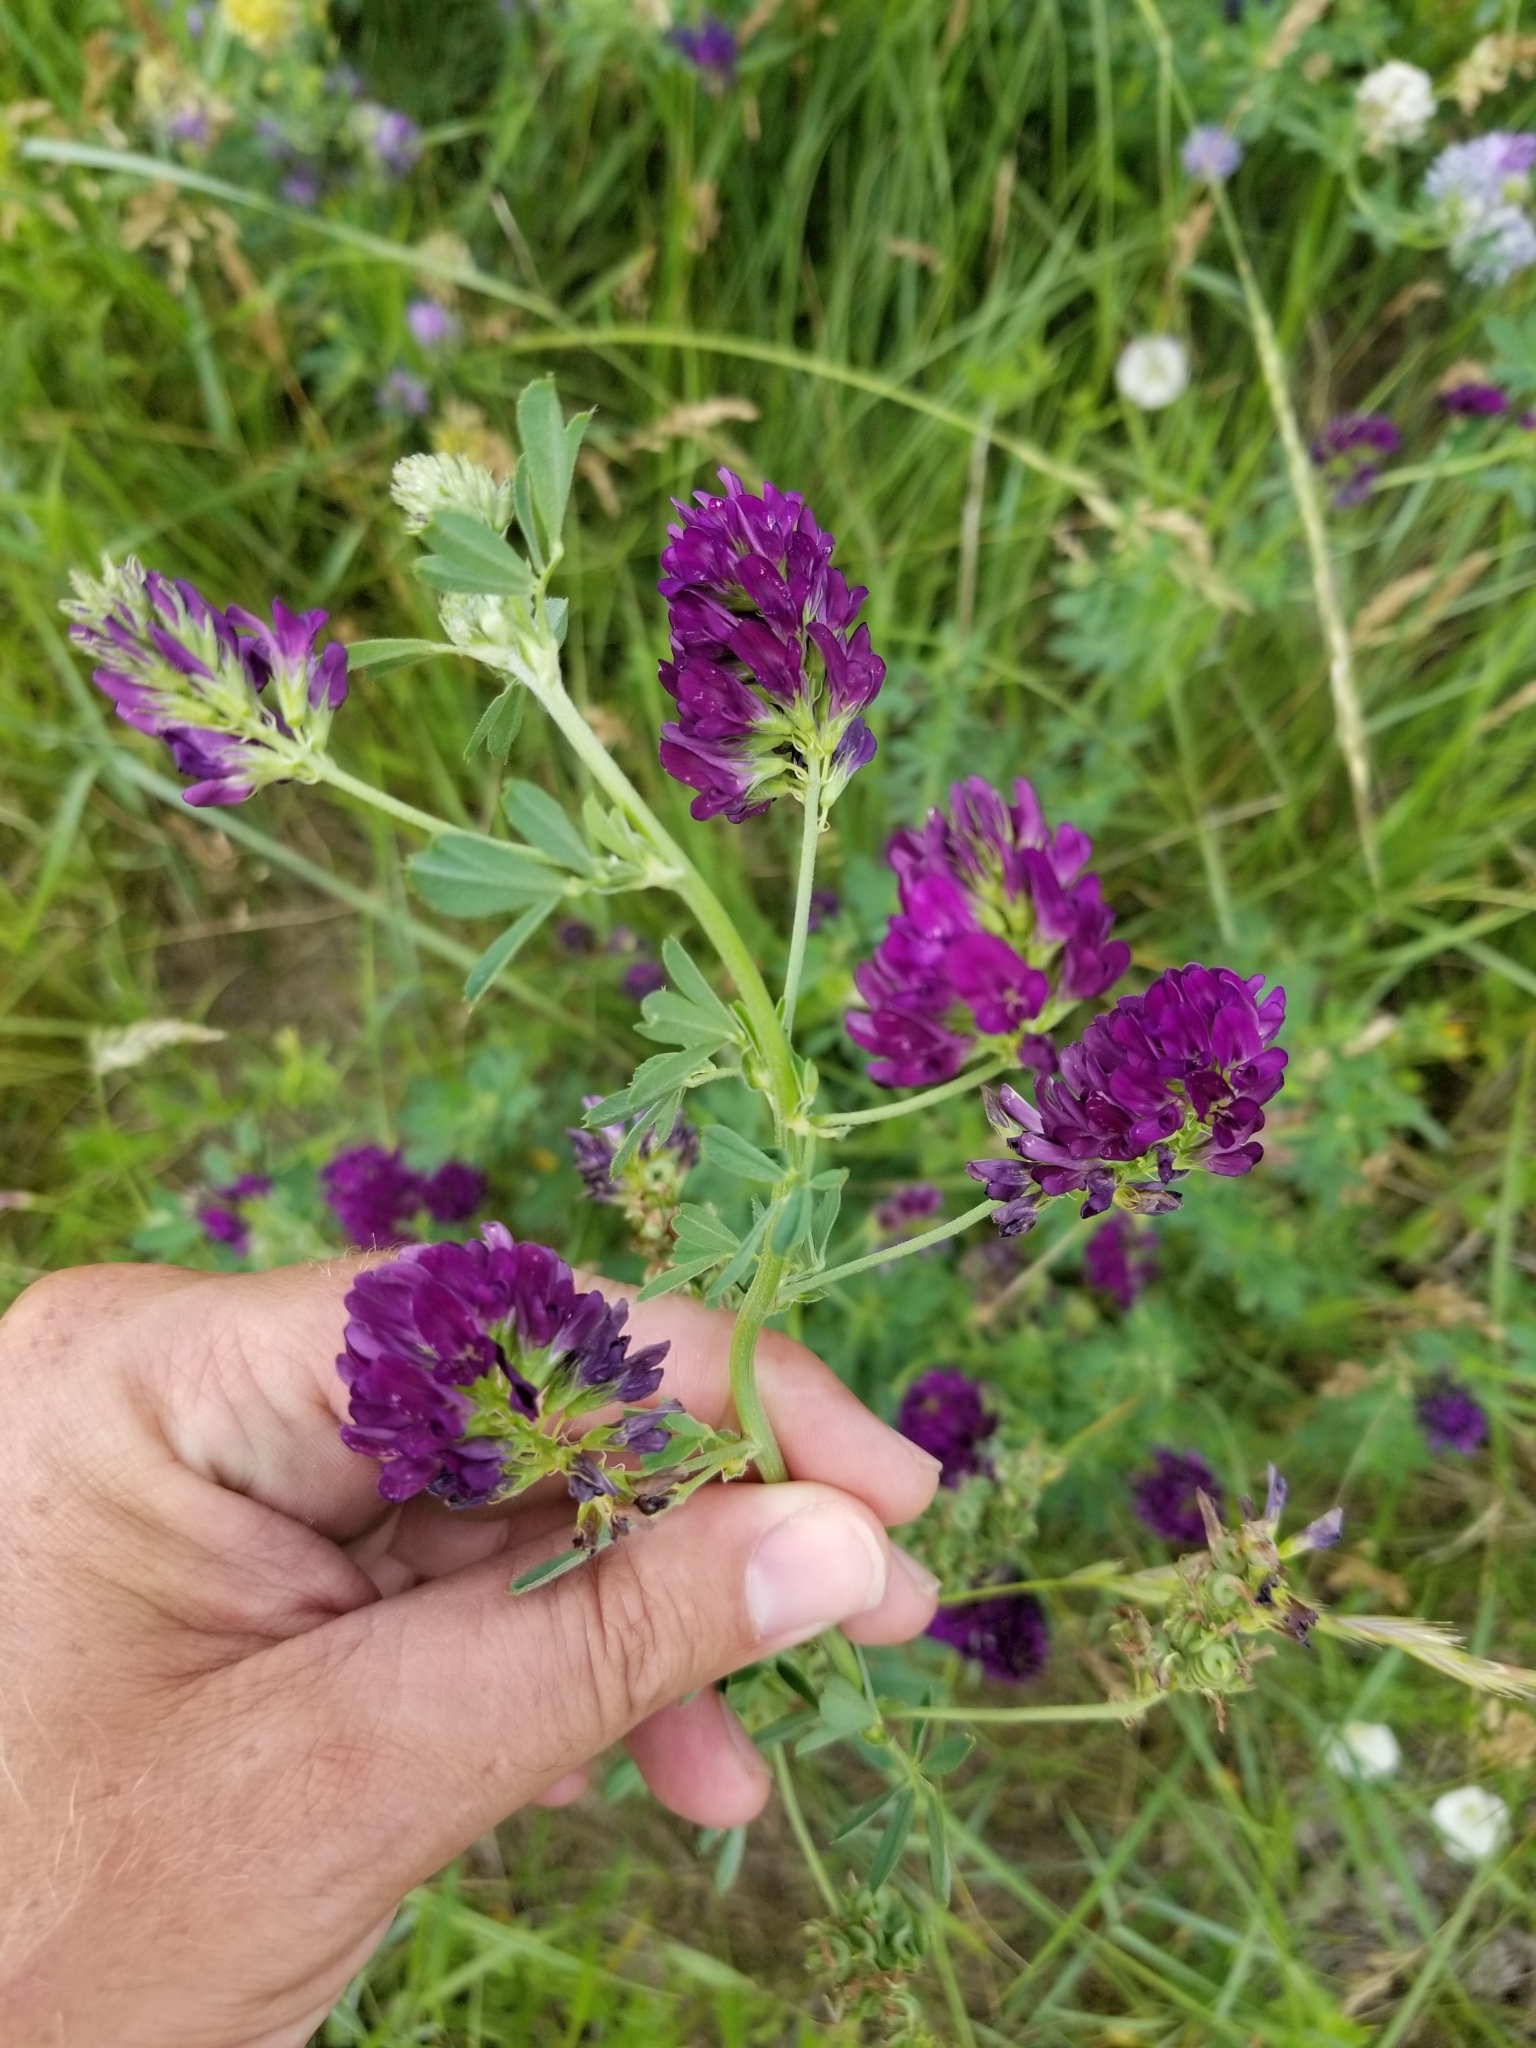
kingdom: Plantae
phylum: Tracheophyta
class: Magnoliopsida
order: Fabales
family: Fabaceae
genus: Medicago
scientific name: Medicago sativa
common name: Alfalfa
